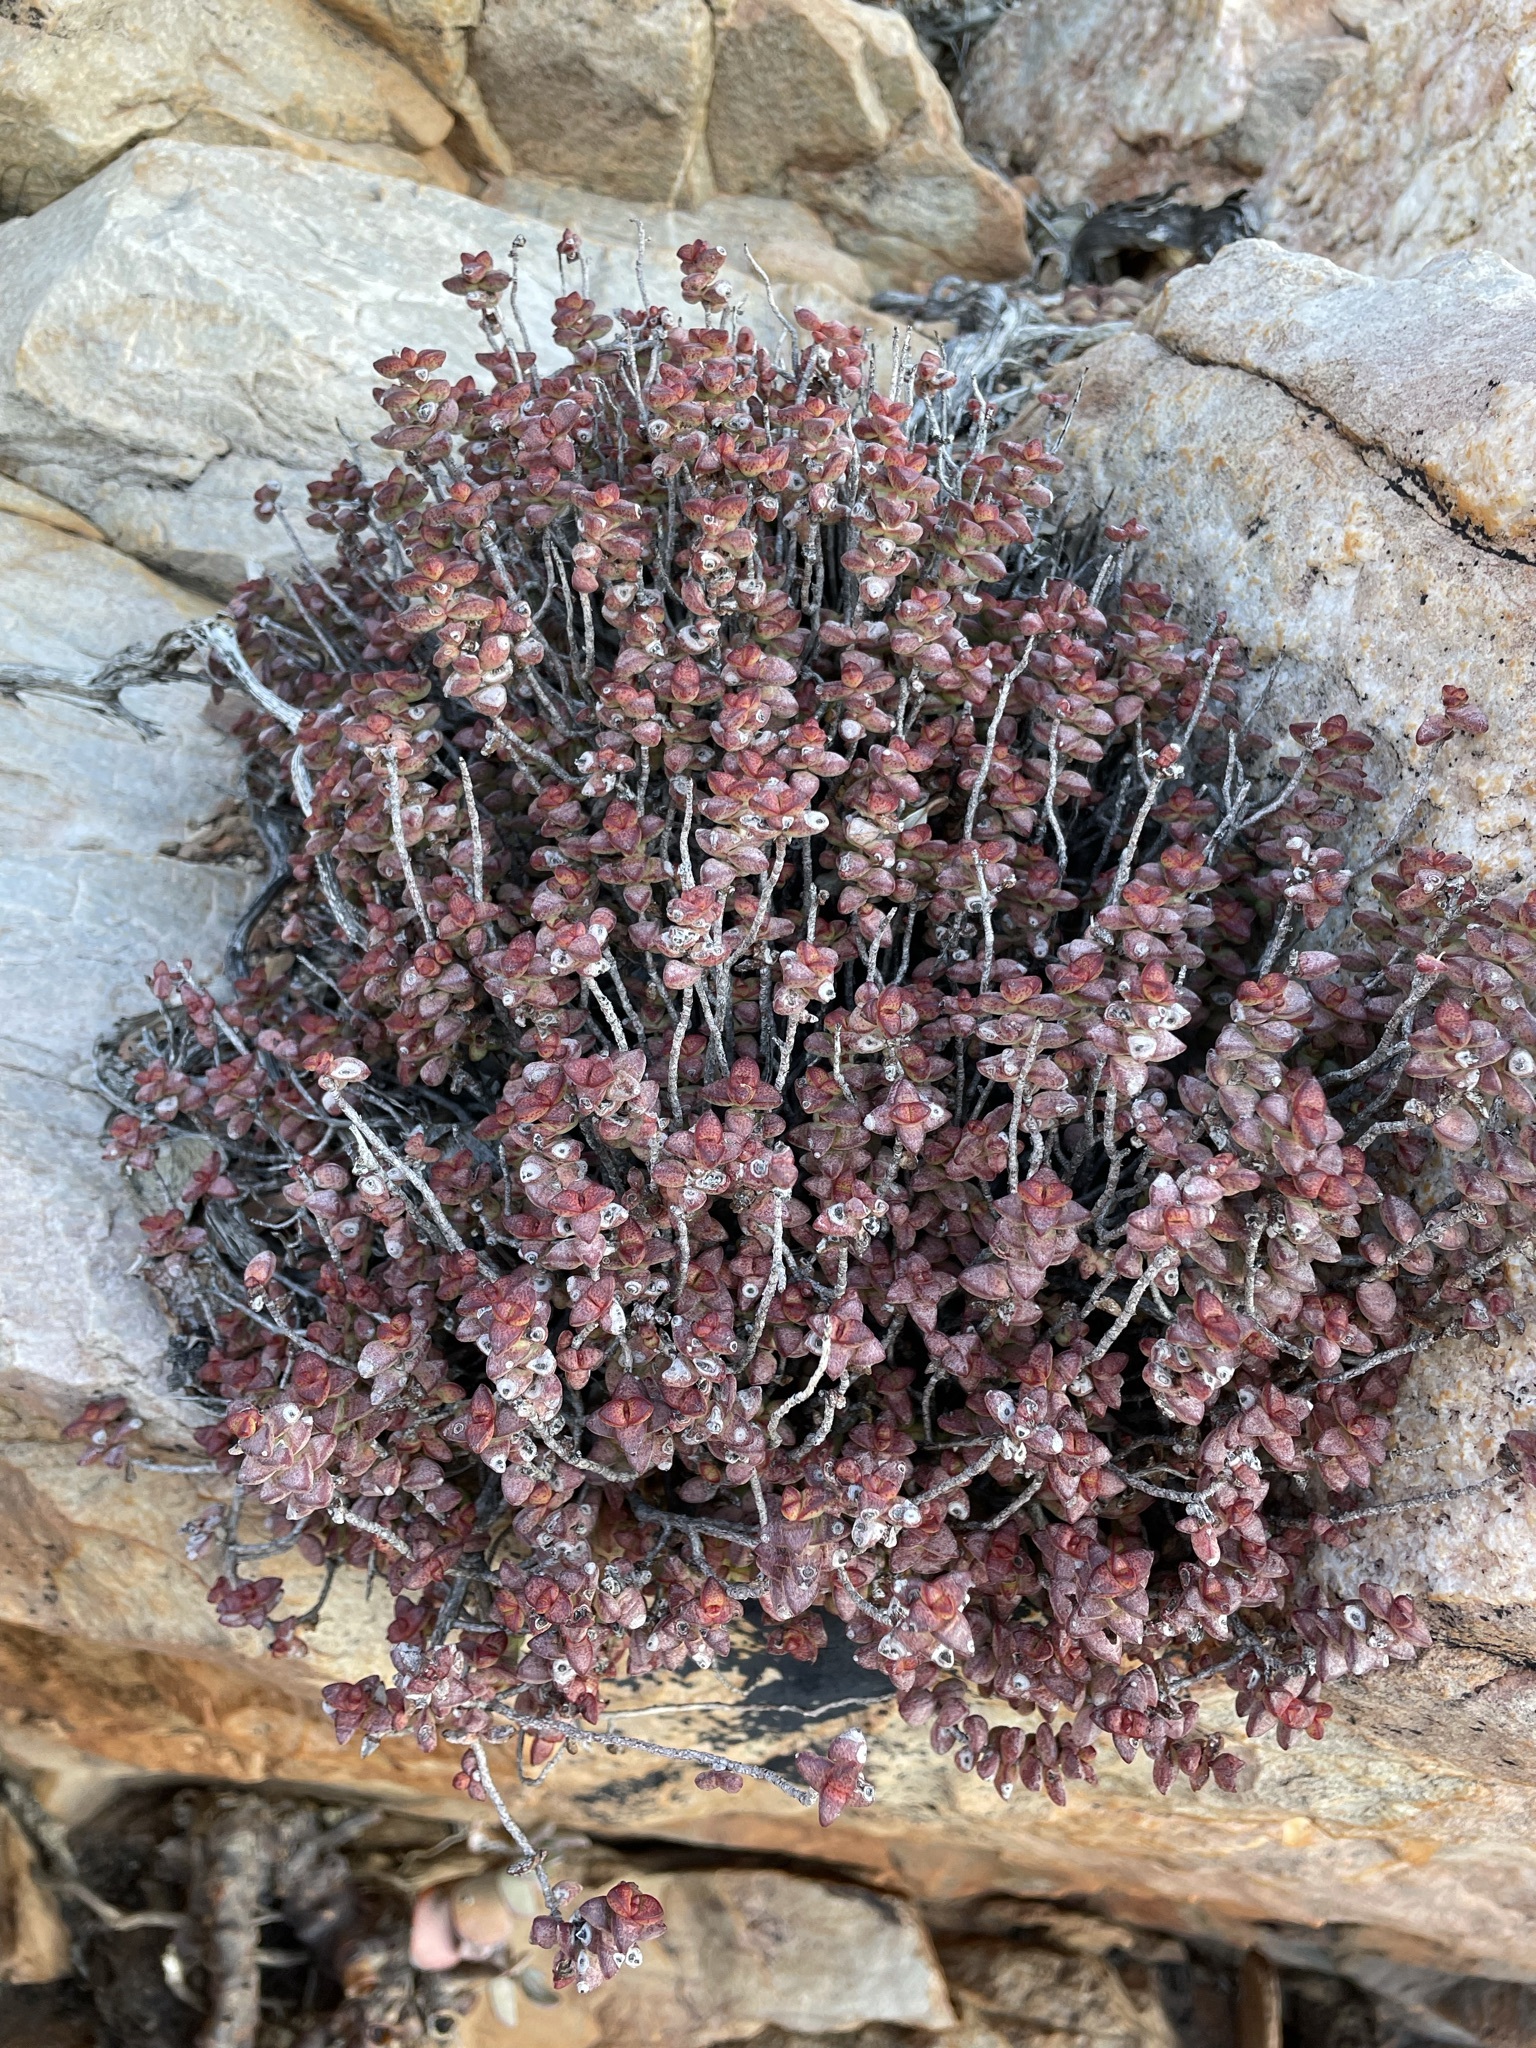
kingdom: Plantae
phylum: Tracheophyta
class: Magnoliopsida
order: Saxifragales
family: Crassulaceae
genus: Crassula
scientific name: Crassula rupestris
